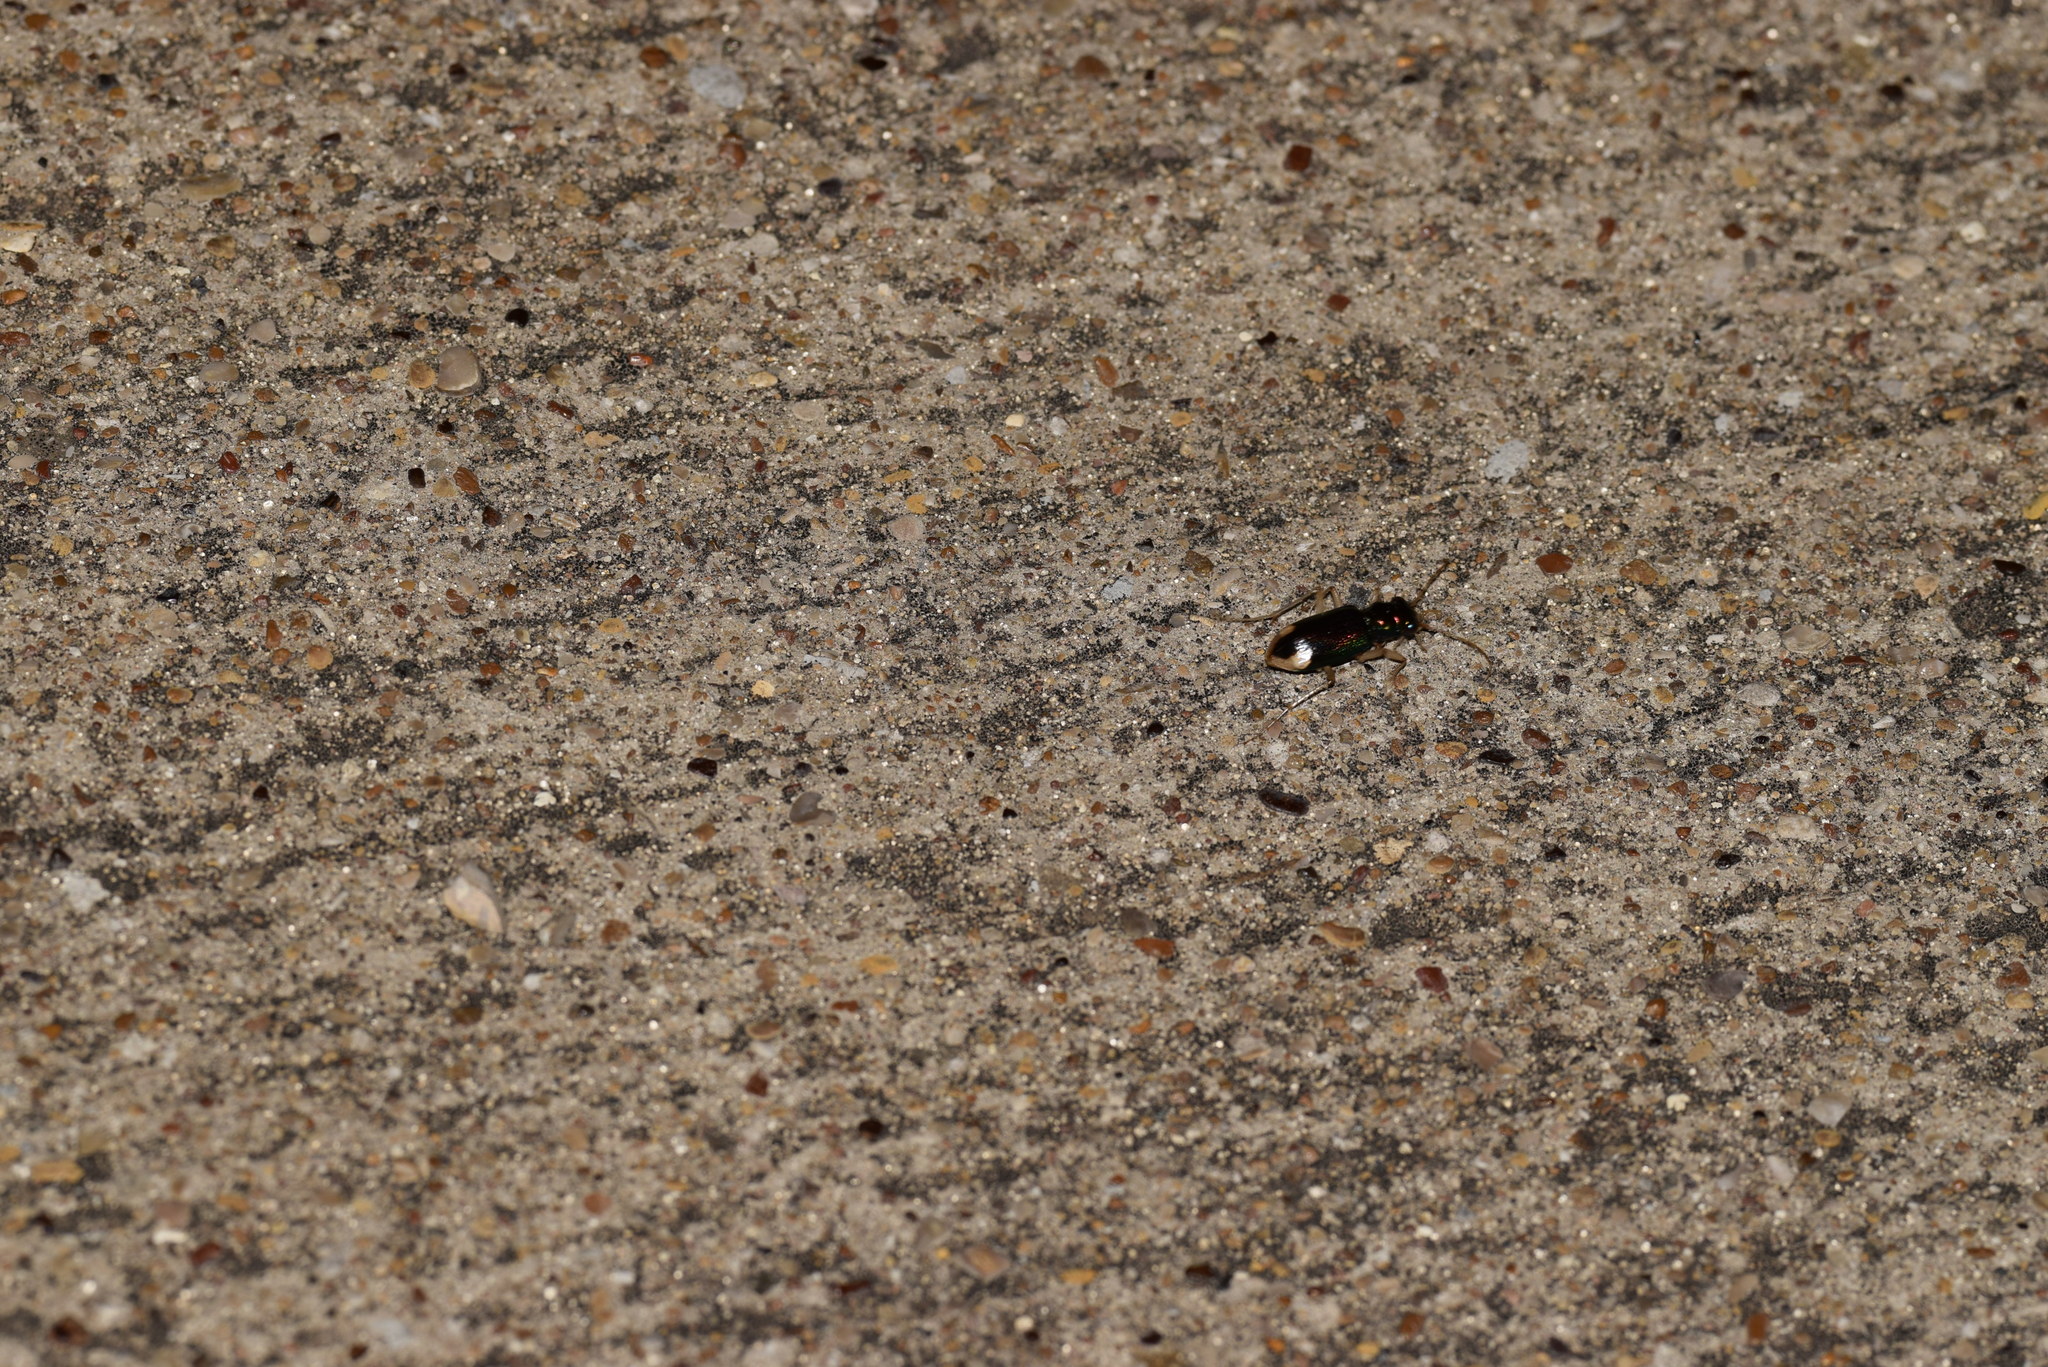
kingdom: Animalia
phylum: Arthropoda
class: Insecta
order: Coleoptera
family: Carabidae
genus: Tetracha
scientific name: Tetracha carolina
